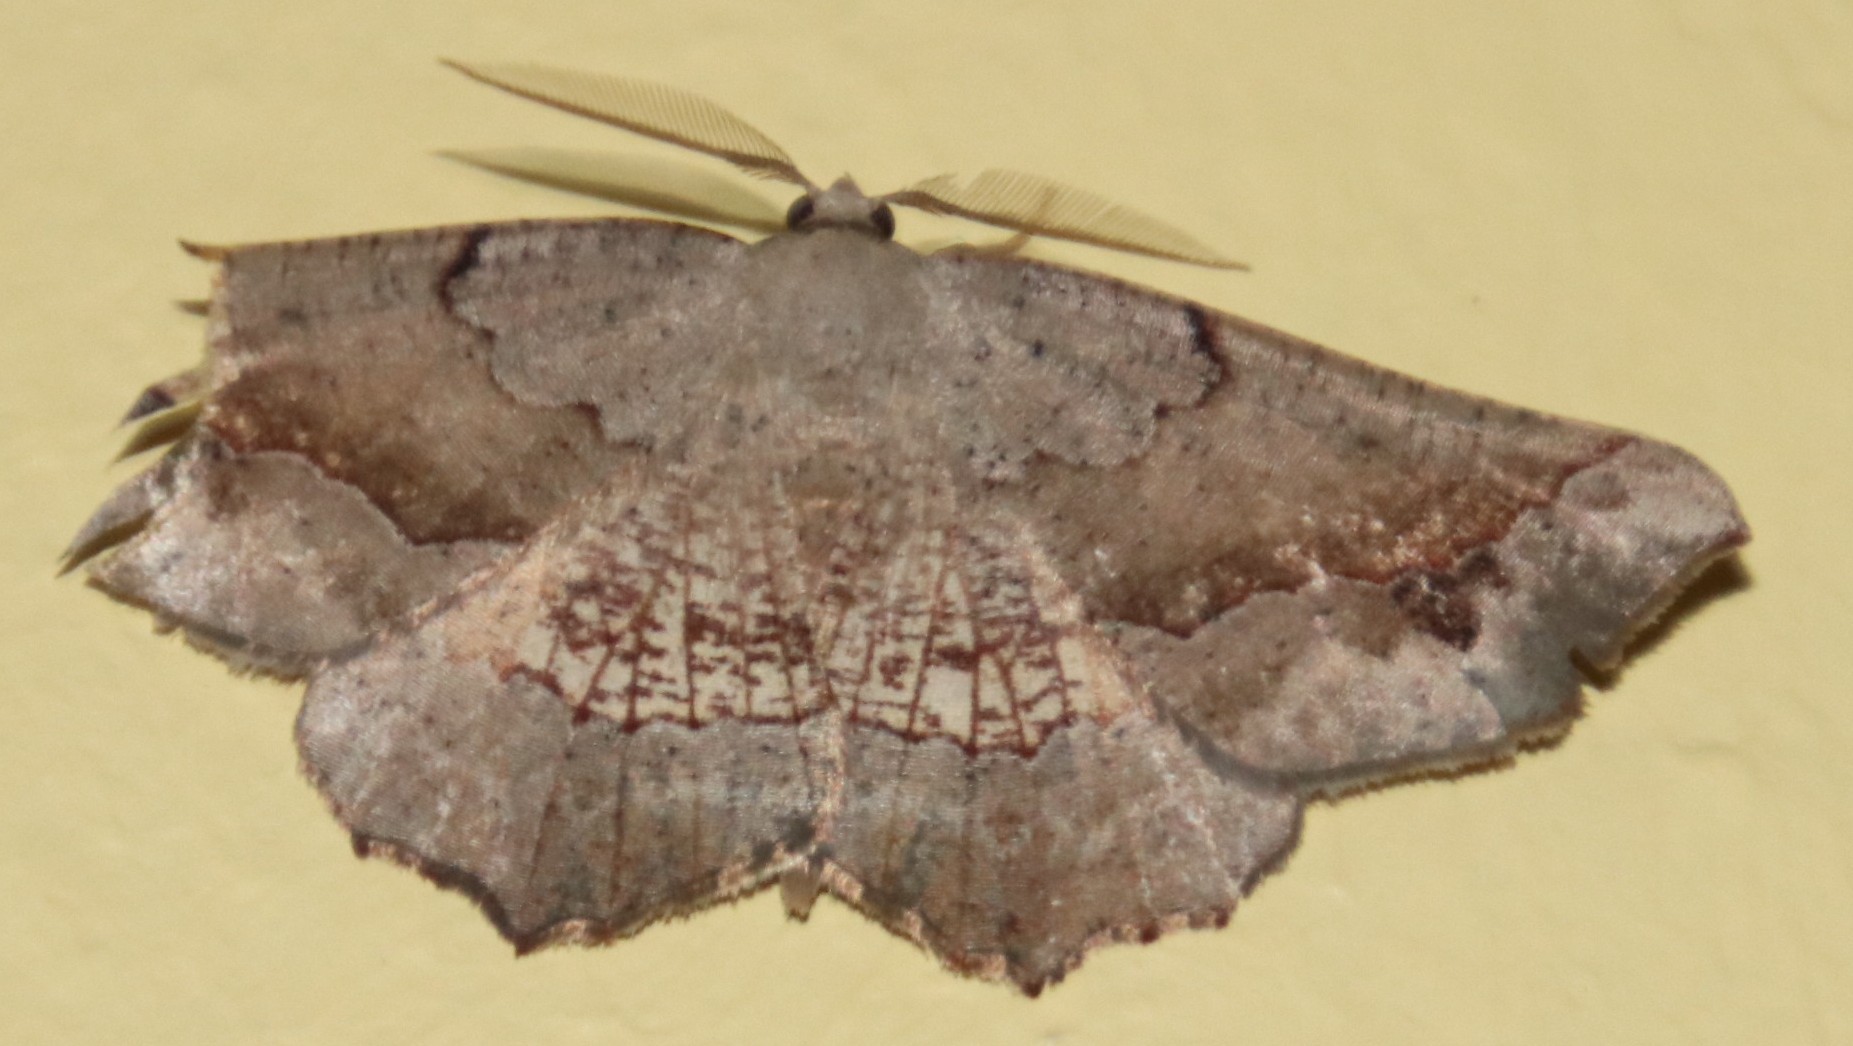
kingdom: Animalia
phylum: Arthropoda
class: Insecta
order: Lepidoptera
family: Geometridae
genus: Drepanogynis
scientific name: Drepanogynis mixtaria
